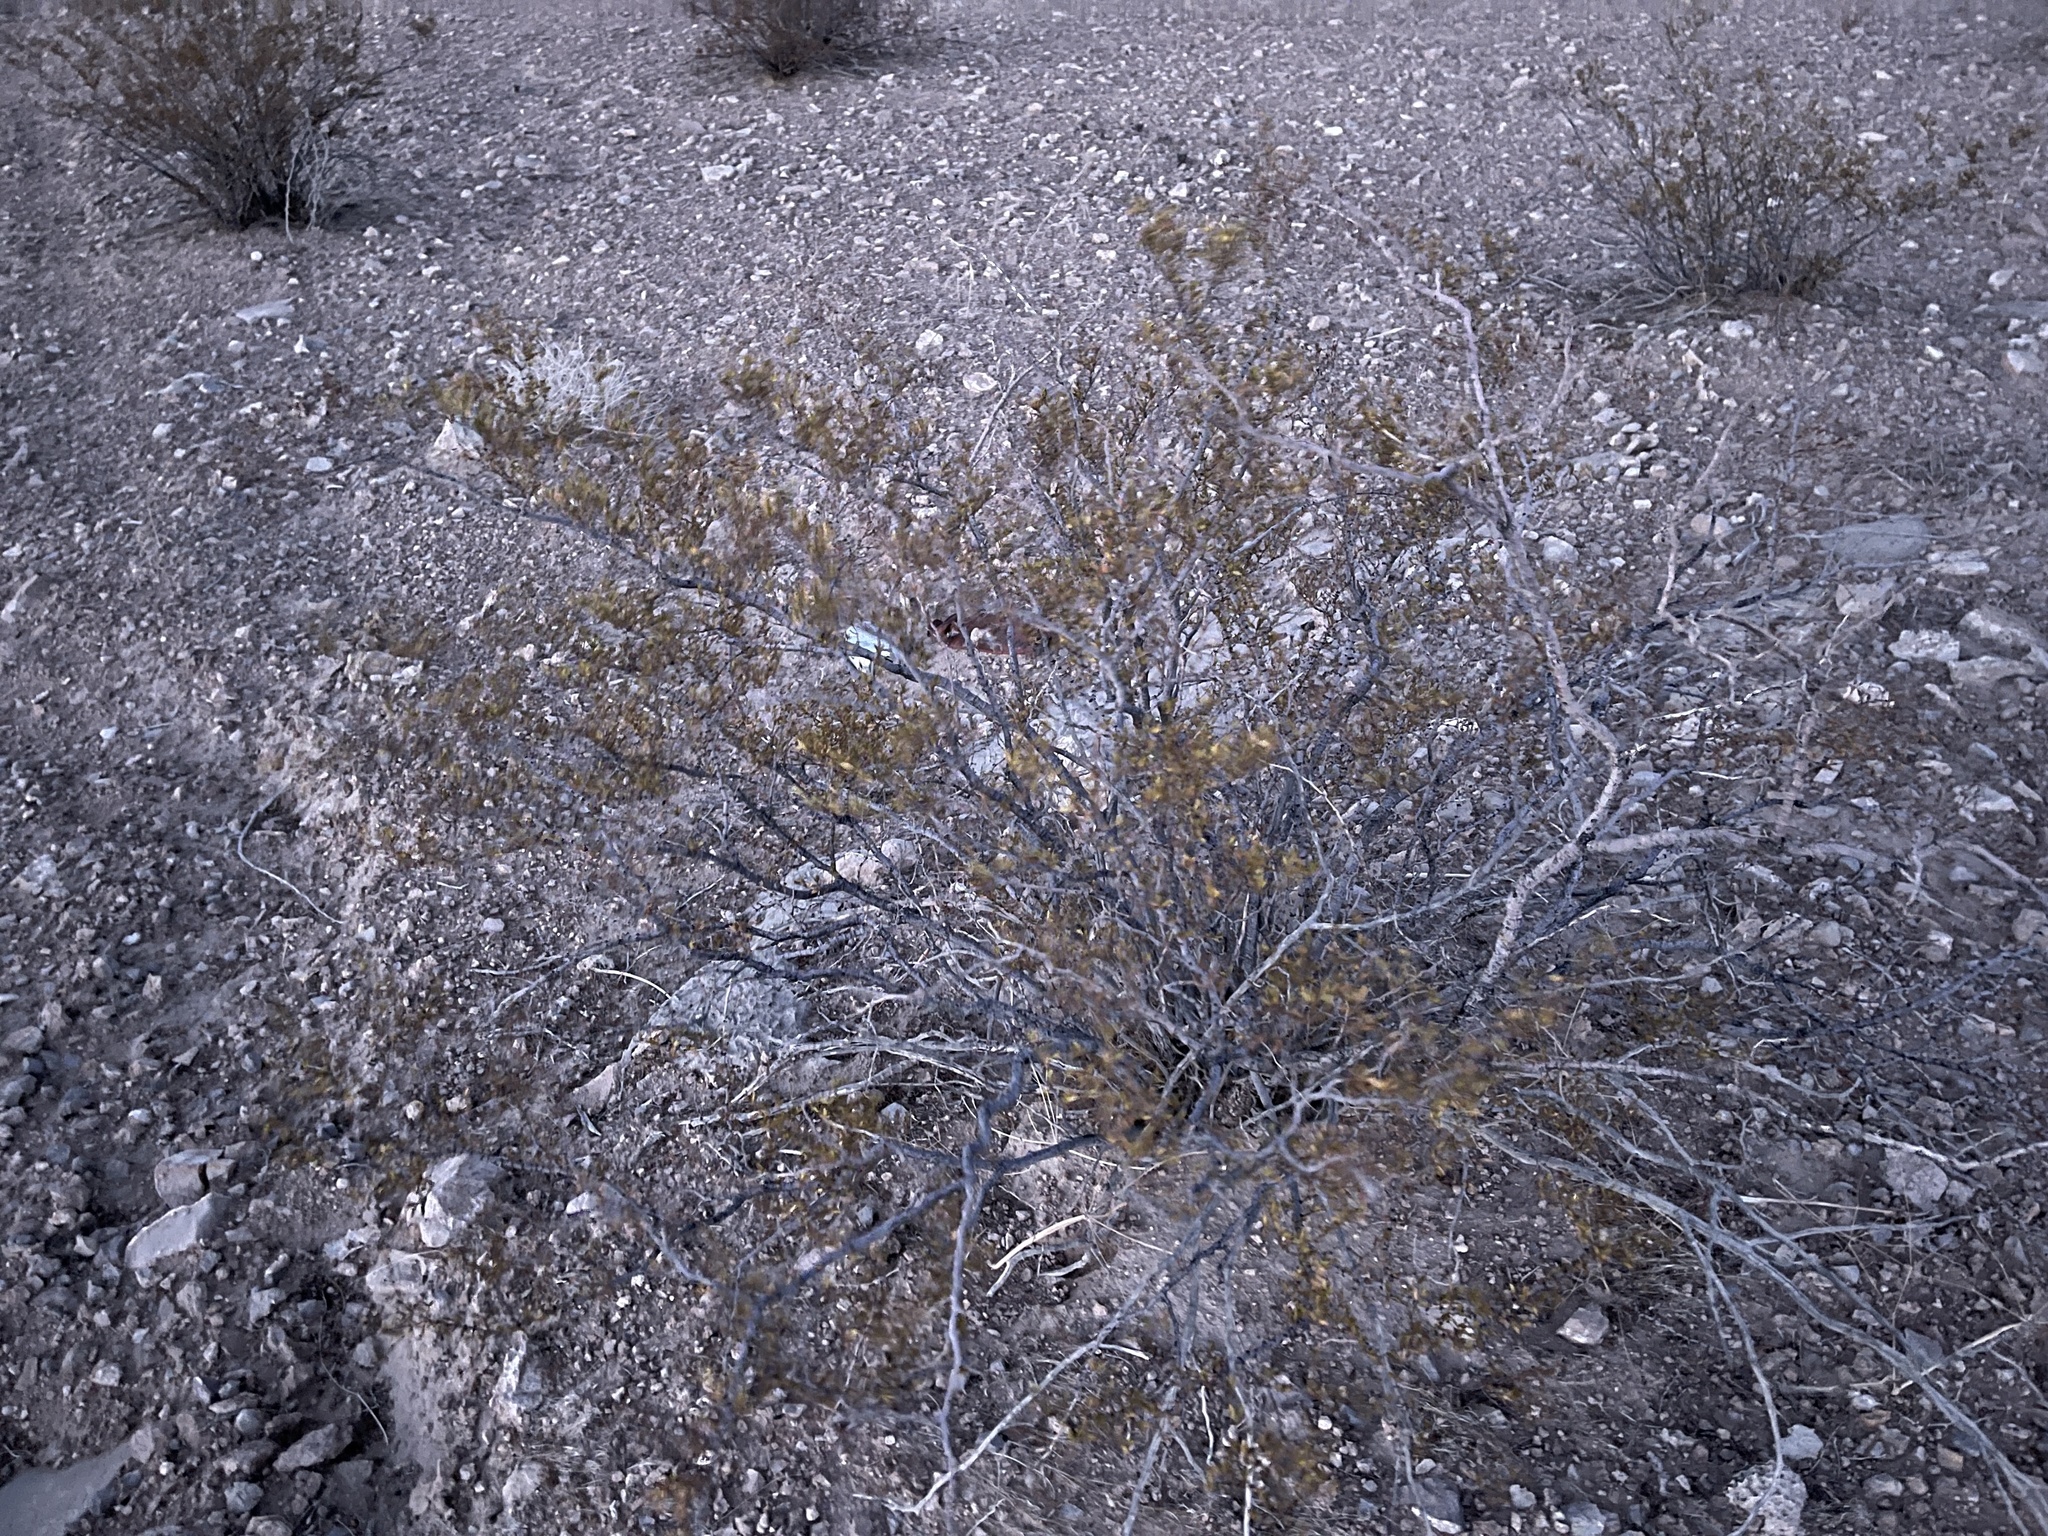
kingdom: Plantae
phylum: Tracheophyta
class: Magnoliopsida
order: Zygophyllales
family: Zygophyllaceae
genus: Larrea
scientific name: Larrea tridentata
